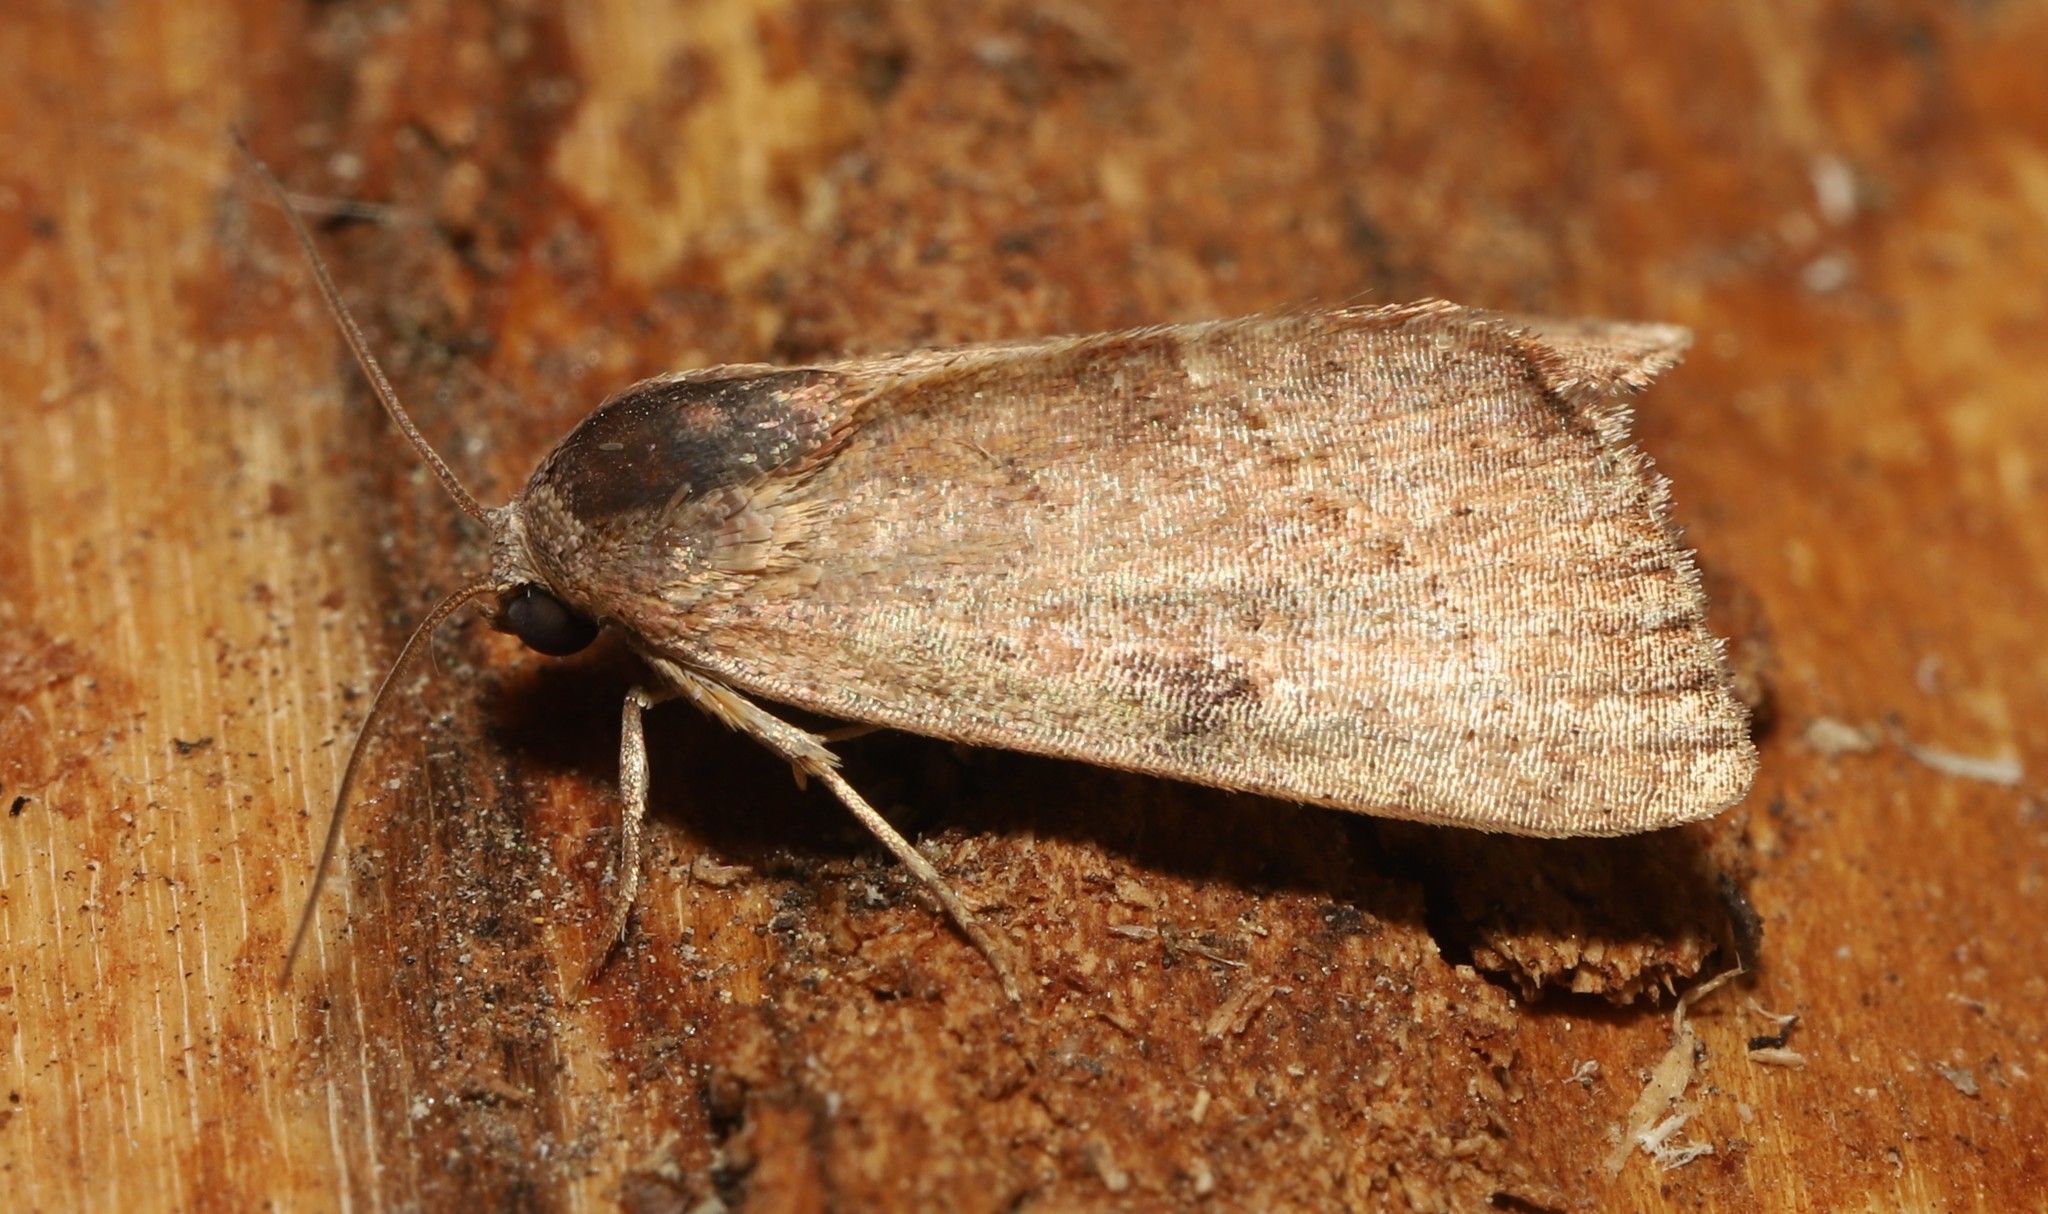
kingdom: Animalia
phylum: Arthropoda
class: Insecta
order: Lepidoptera
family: Noctuidae
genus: Galgula
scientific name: Galgula partita
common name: Wedgeling
